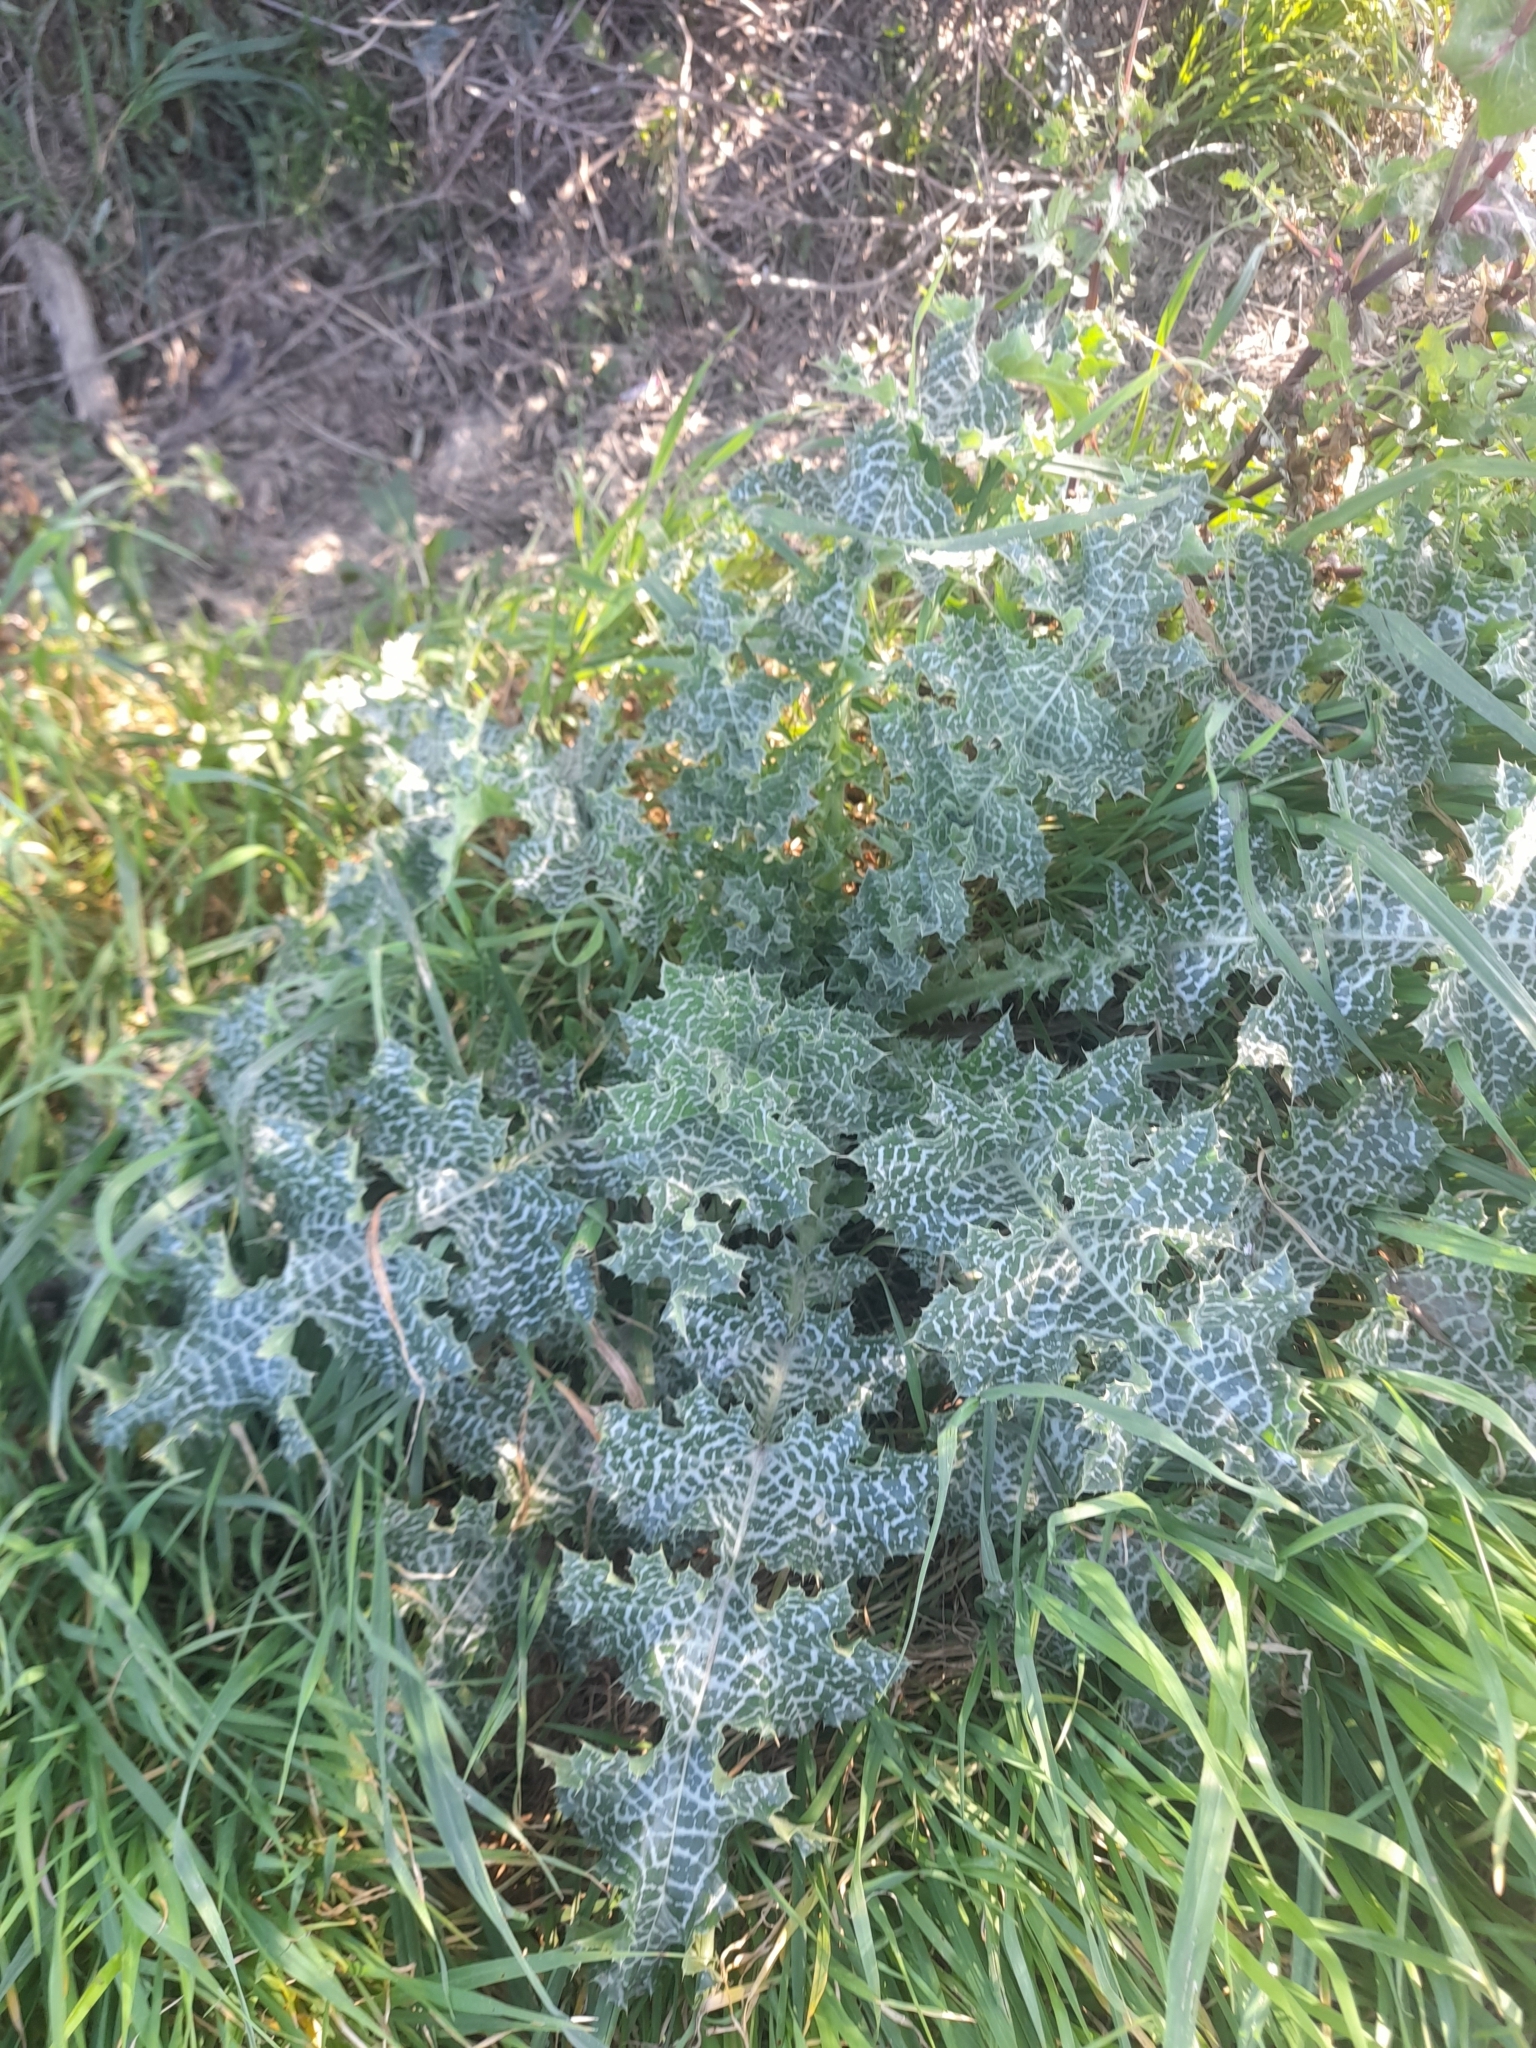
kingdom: Plantae
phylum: Tracheophyta
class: Magnoliopsida
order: Asterales
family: Asteraceae
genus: Silybum
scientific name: Silybum marianum
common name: Milk thistle
